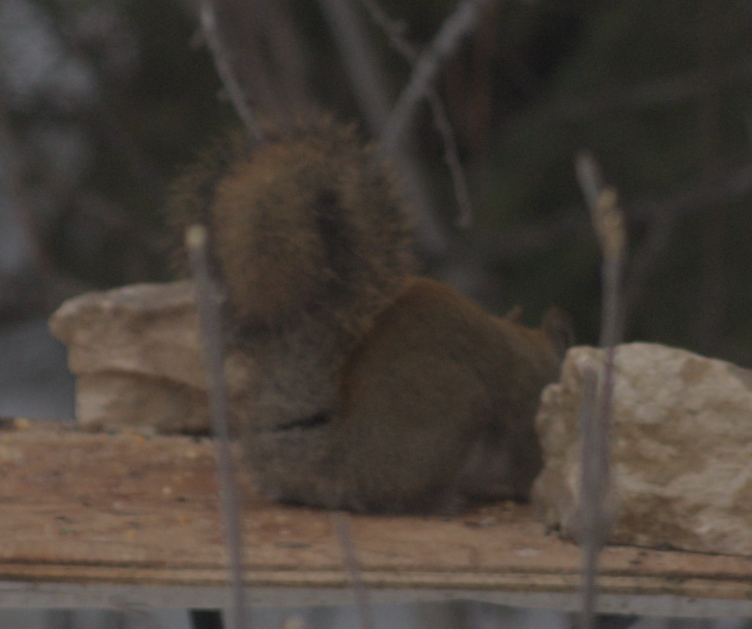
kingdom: Animalia
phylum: Chordata
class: Mammalia
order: Rodentia
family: Sciuridae
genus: Tamiasciurus
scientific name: Tamiasciurus hudsonicus
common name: Red squirrel
